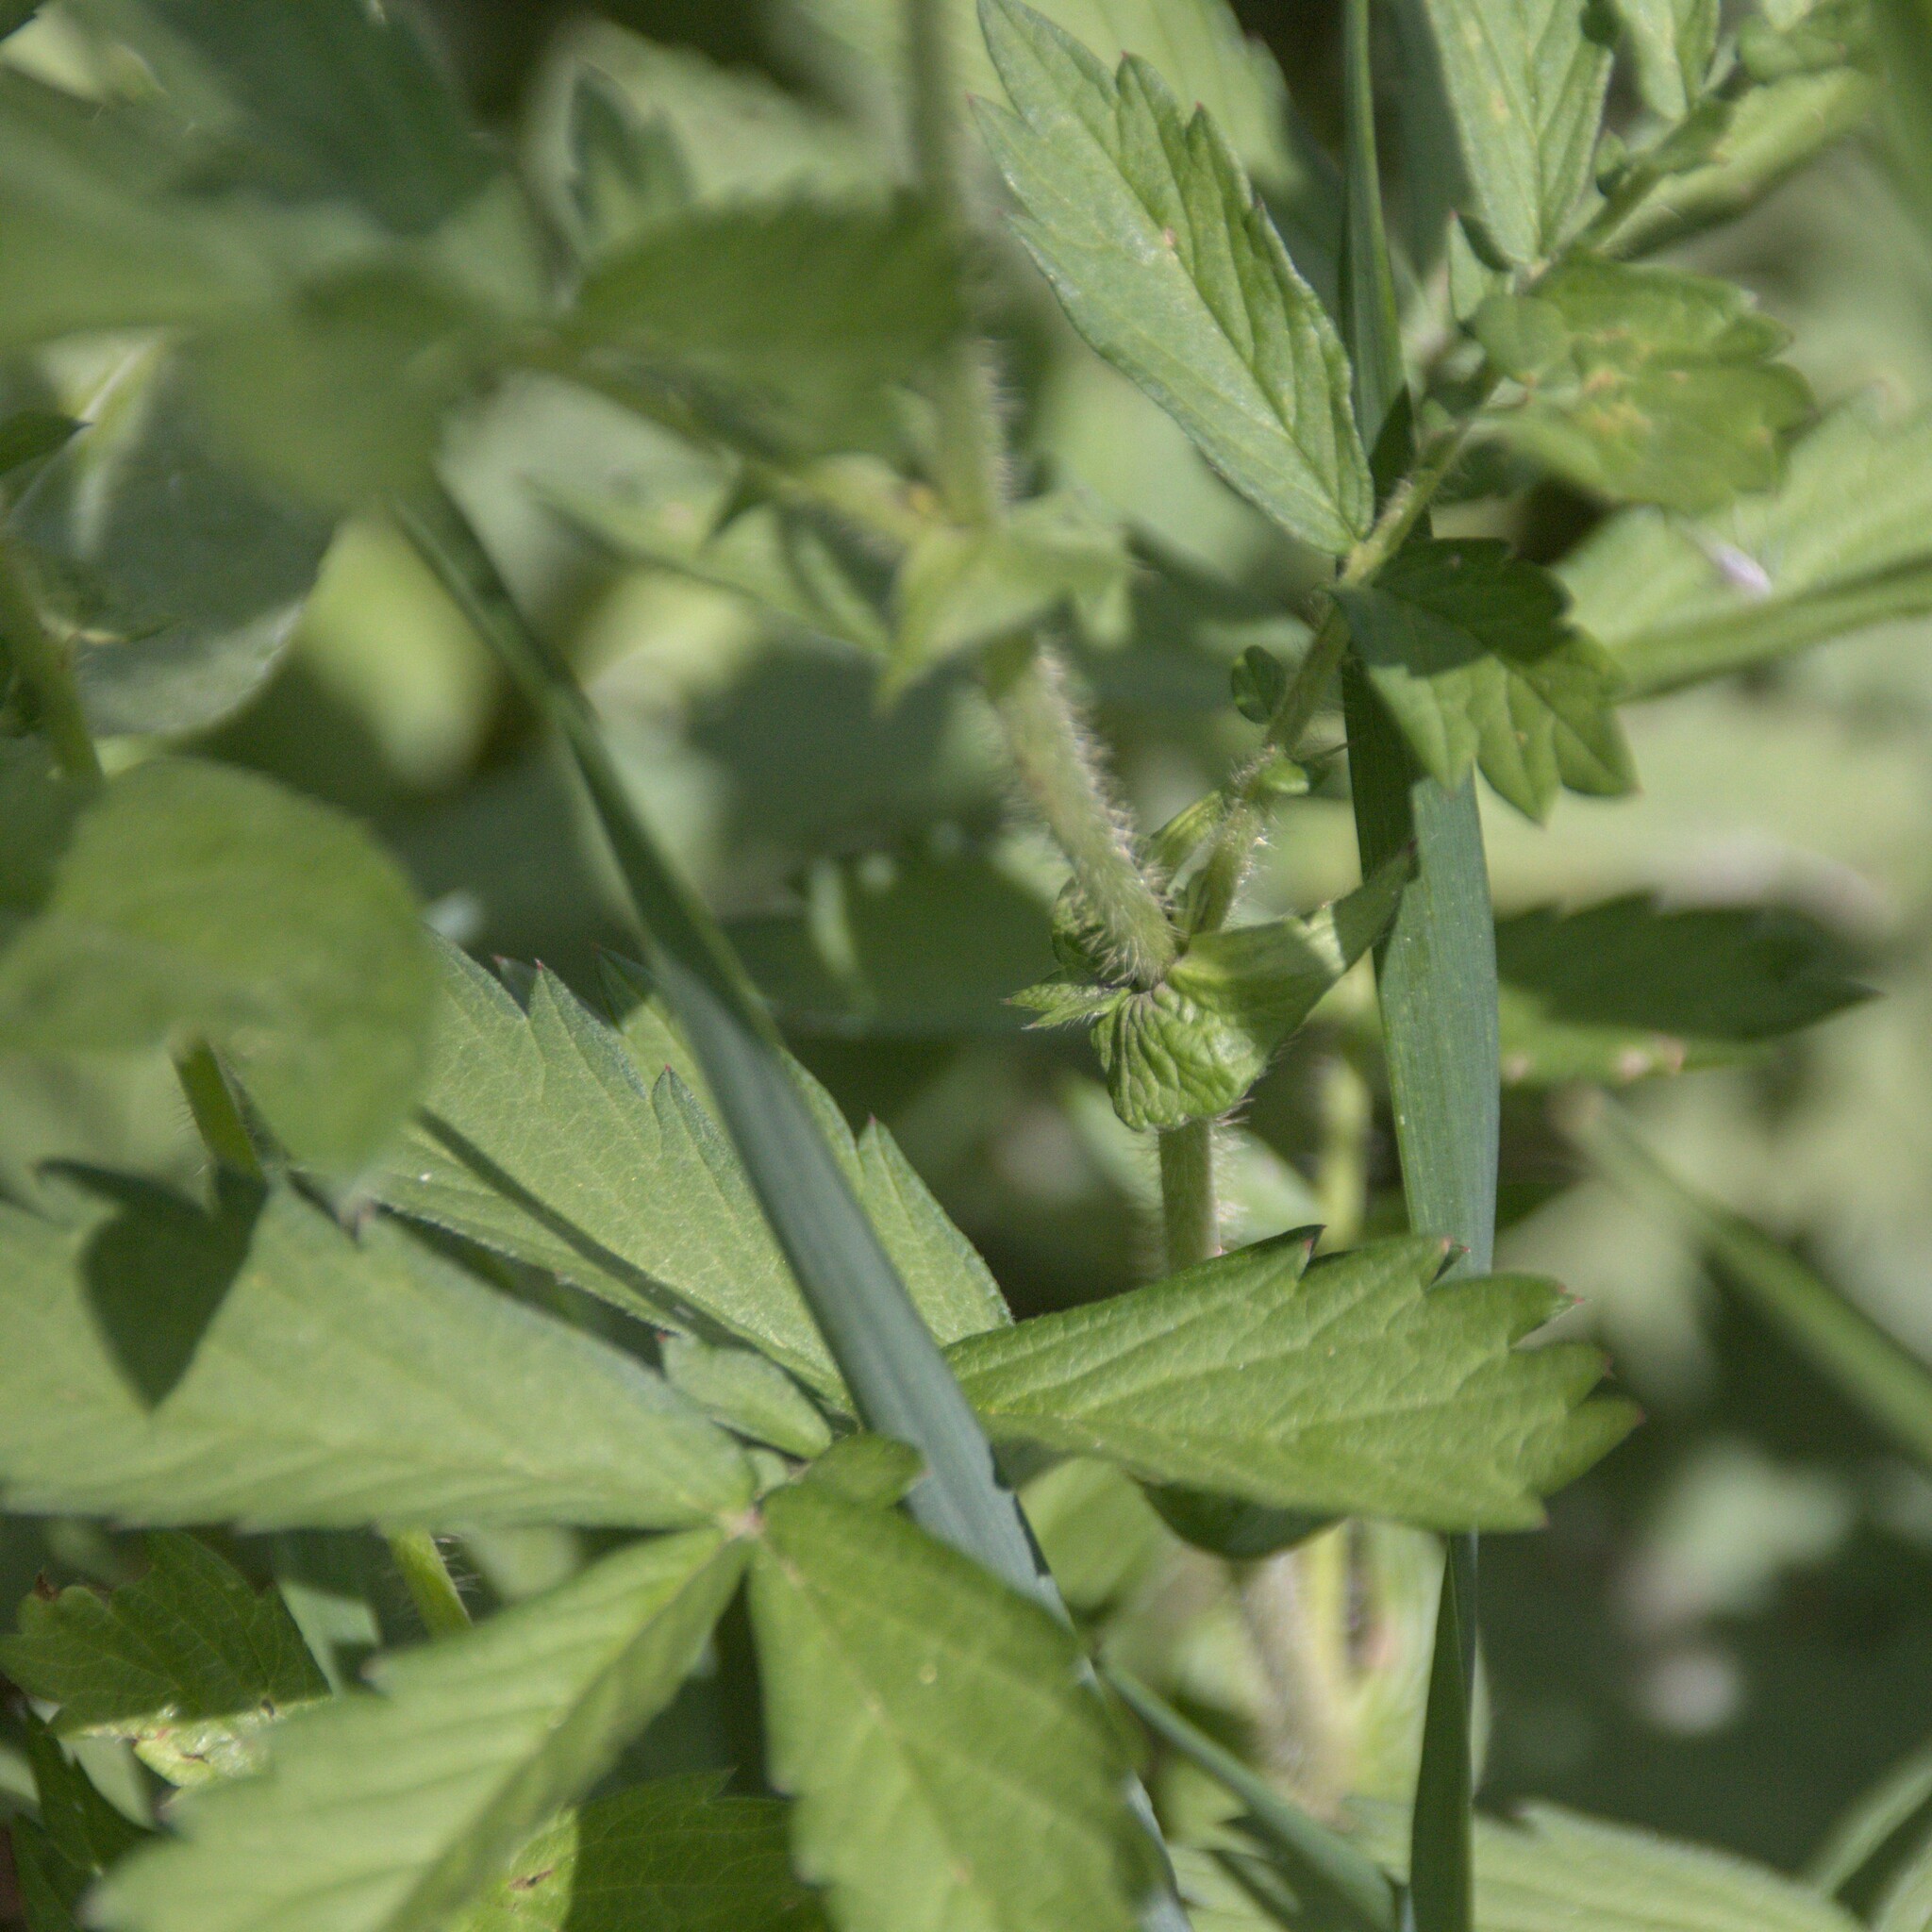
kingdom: Plantae
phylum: Tracheophyta
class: Magnoliopsida
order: Rosales
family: Rosaceae
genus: Agrimonia
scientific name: Agrimonia pilosa
